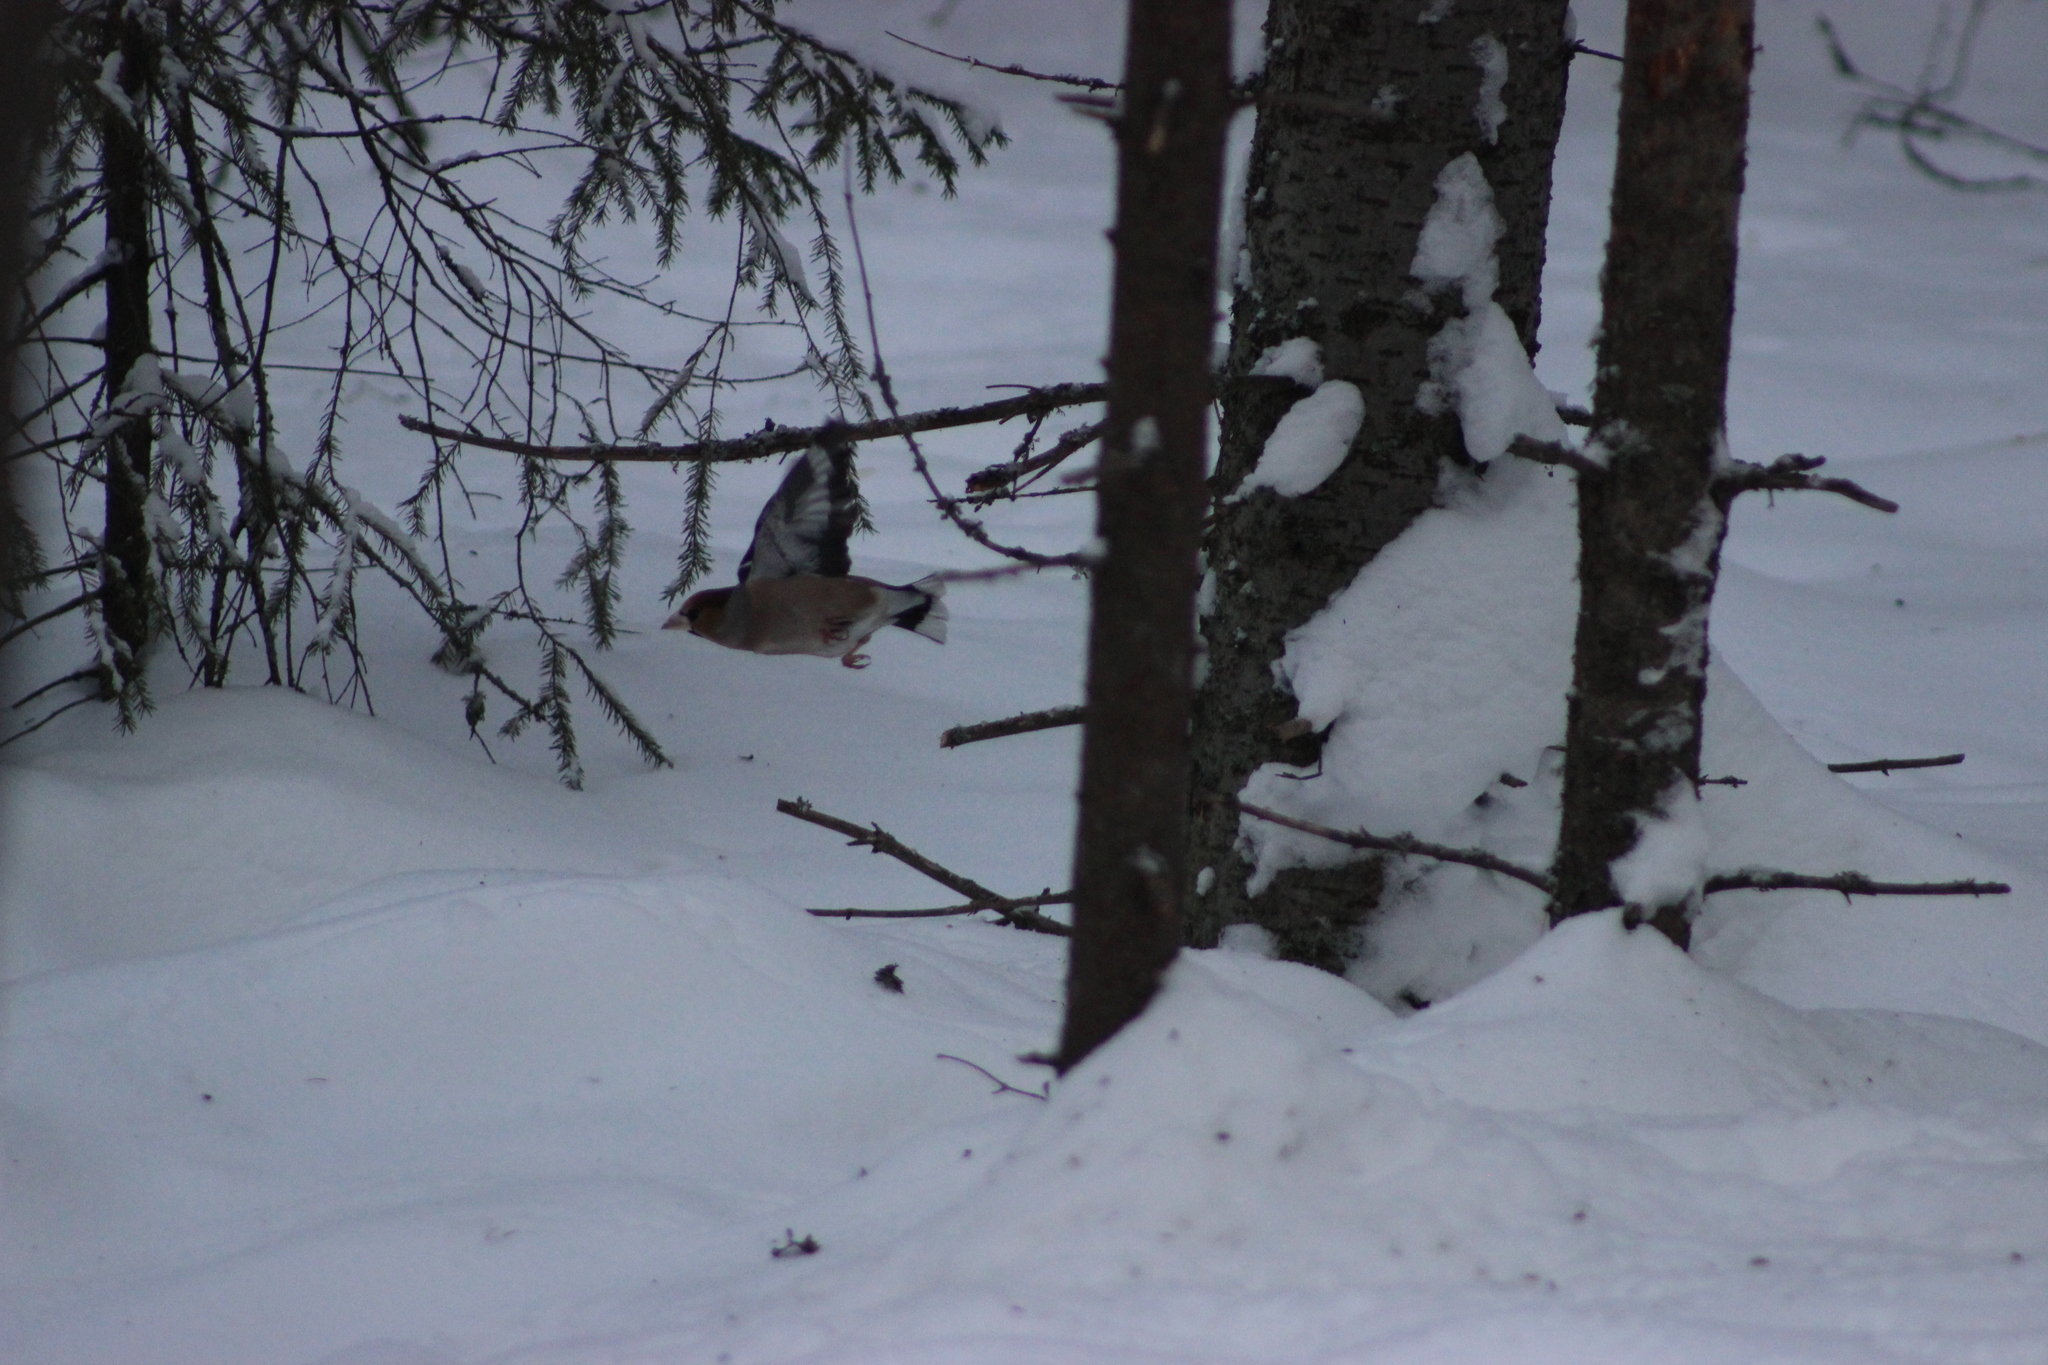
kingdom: Animalia
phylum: Chordata
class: Aves
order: Passeriformes
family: Fringillidae
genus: Coccothraustes
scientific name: Coccothraustes coccothraustes
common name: Hawfinch
